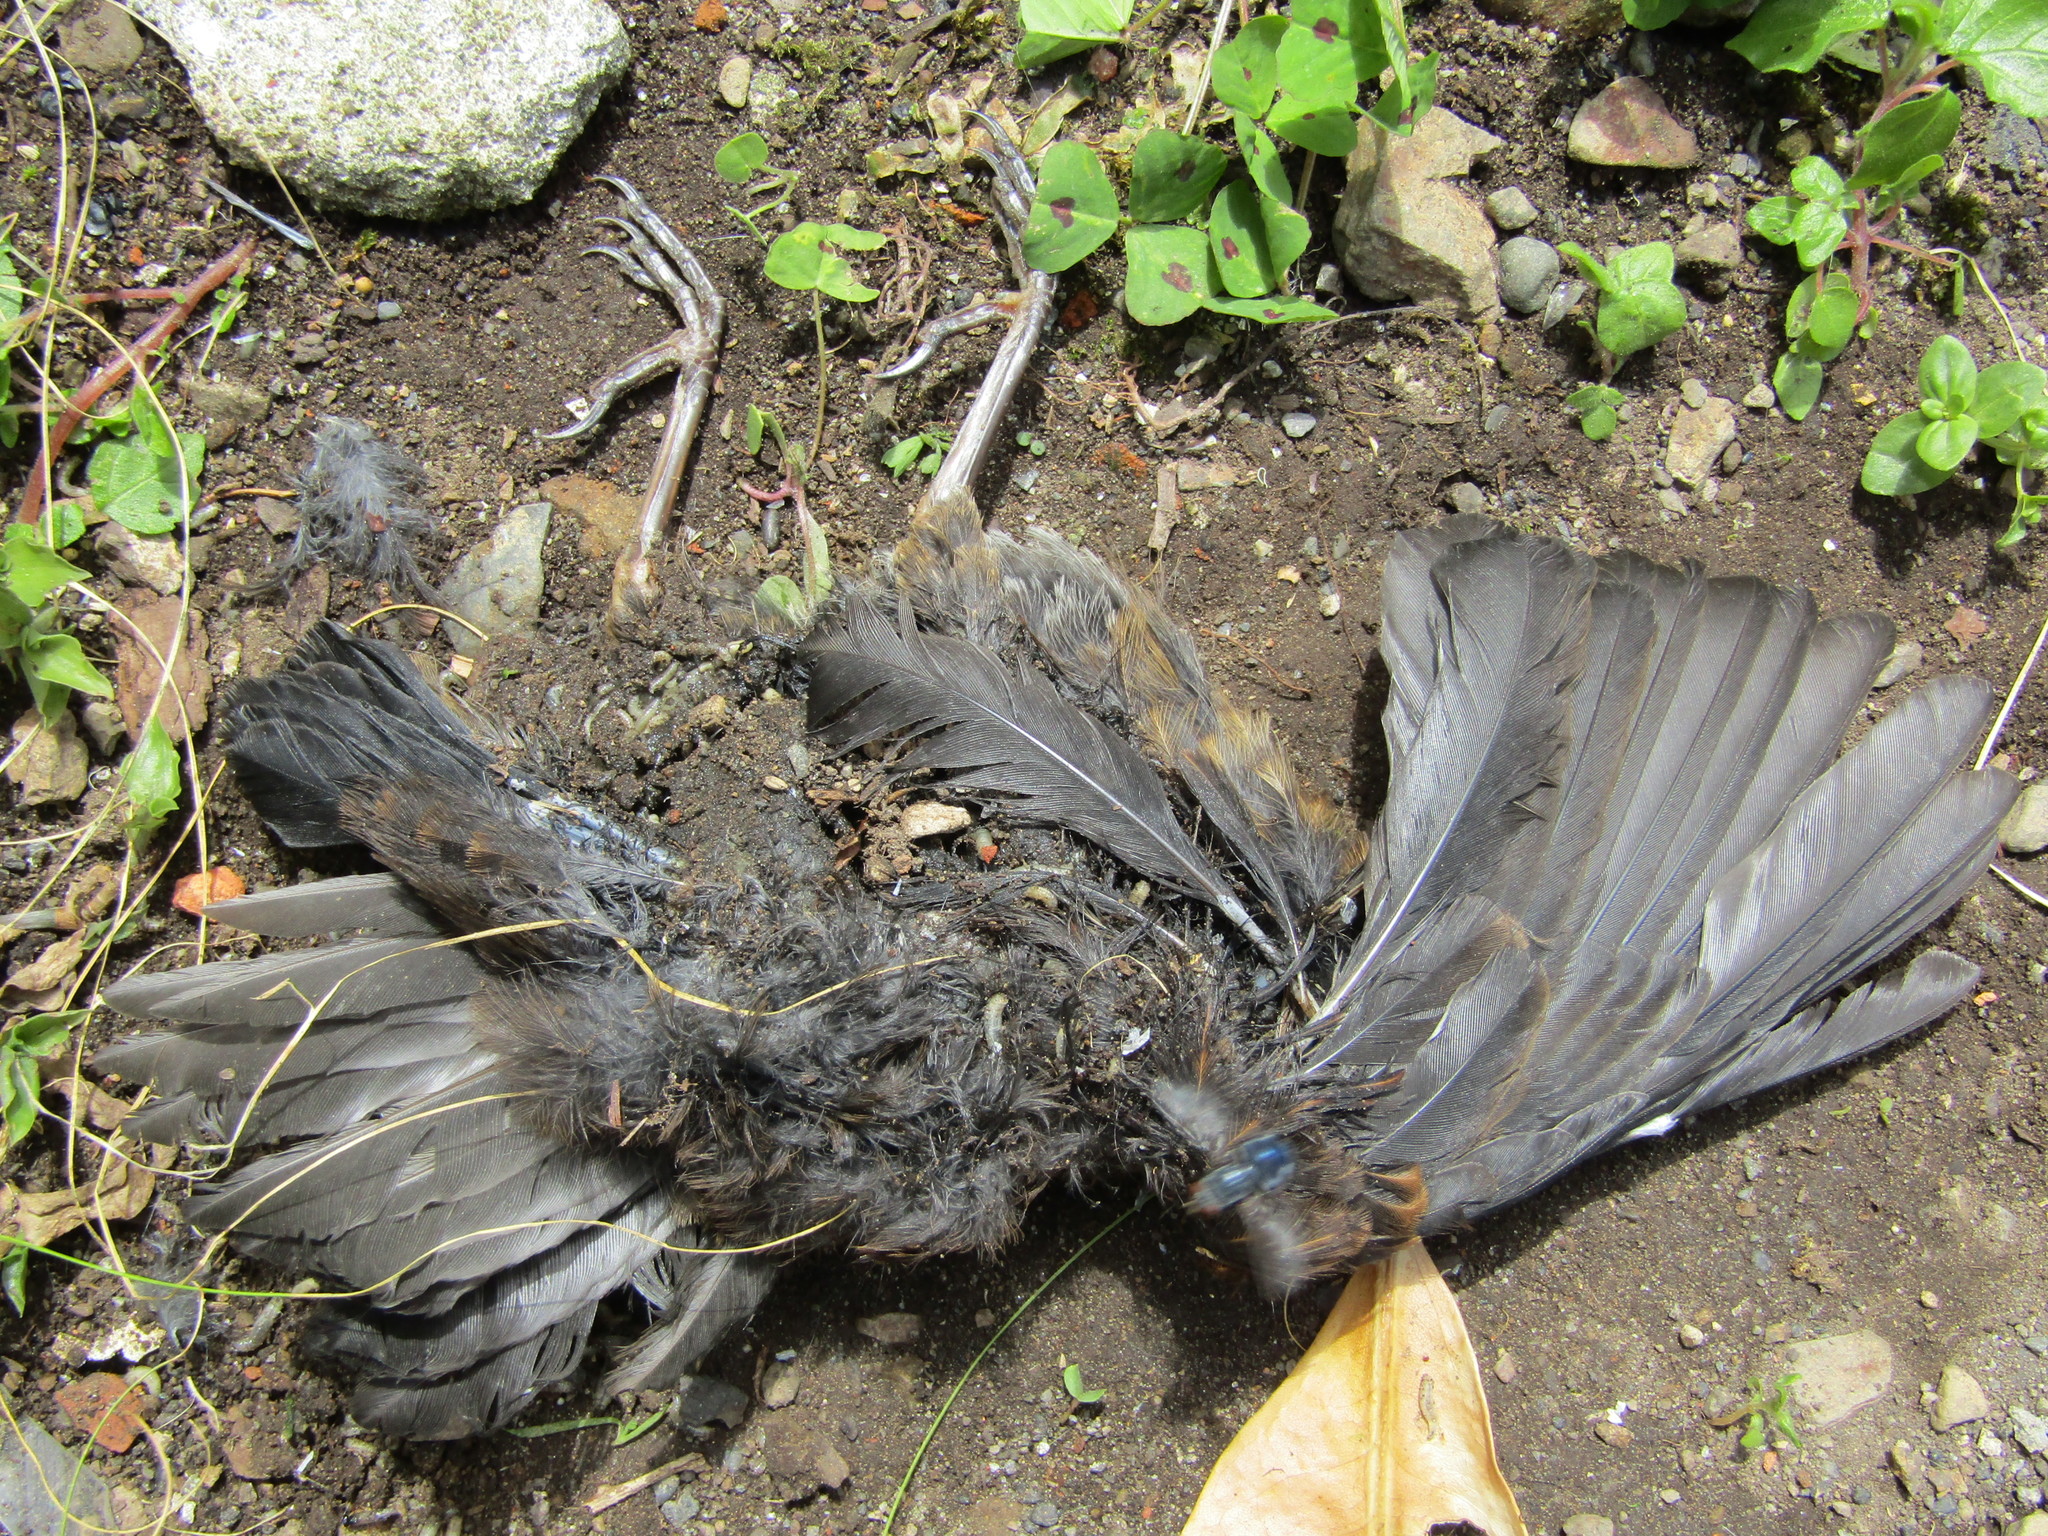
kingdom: Animalia
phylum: Chordata
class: Aves
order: Passeriformes
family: Turdidae
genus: Turdus
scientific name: Turdus merula
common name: Common blackbird
